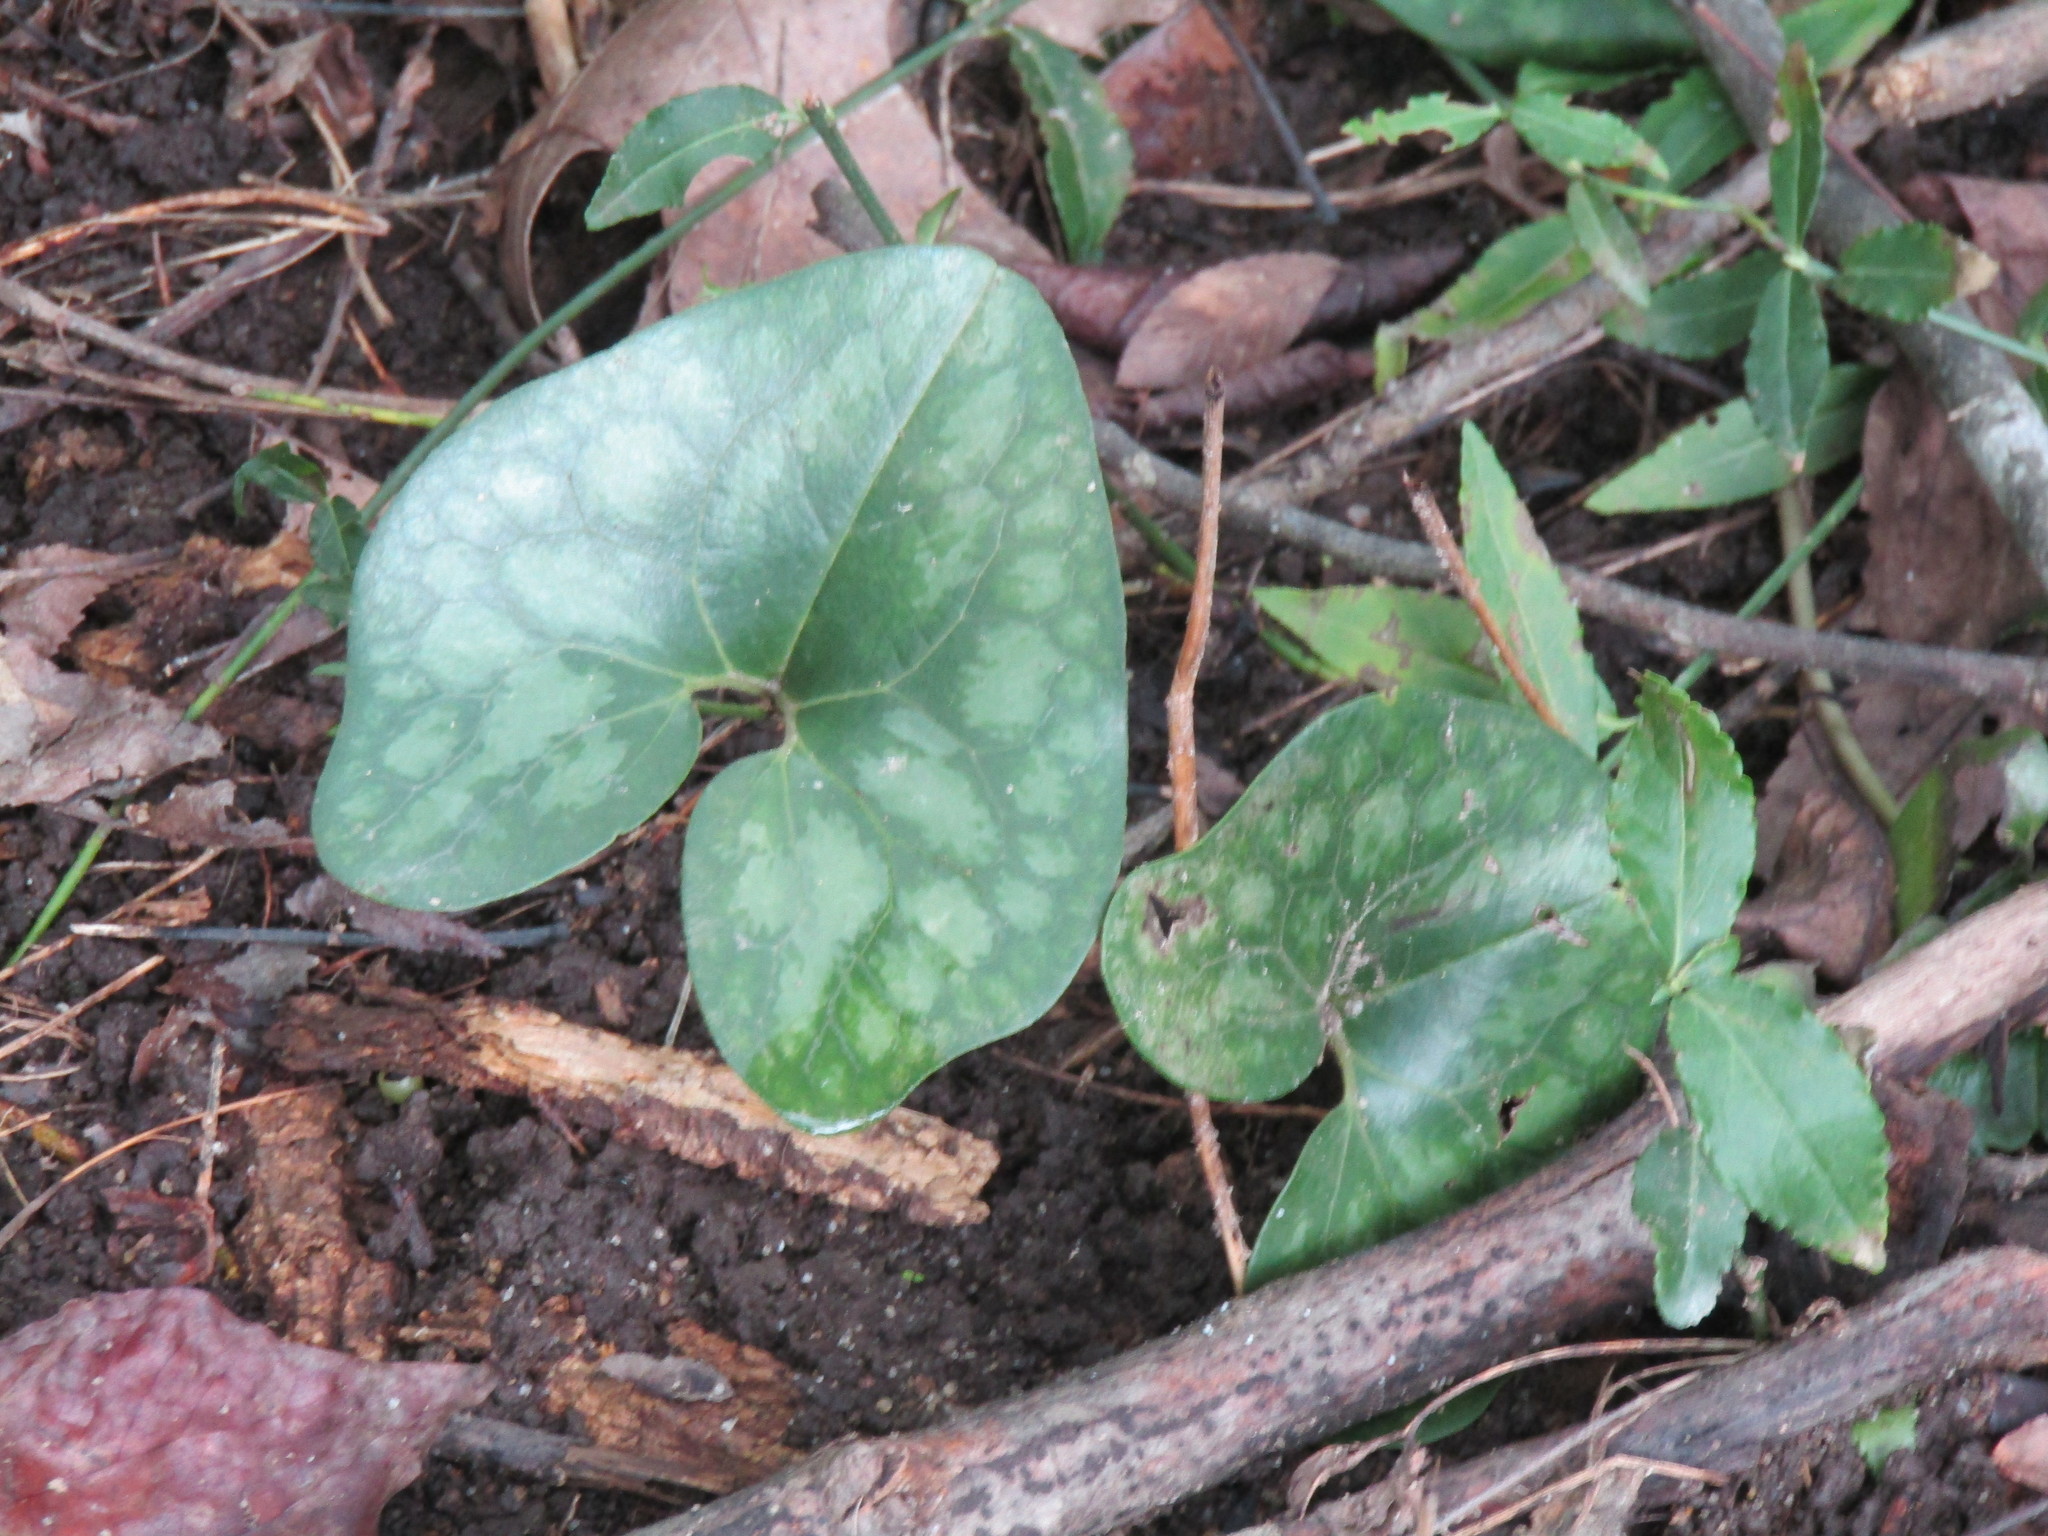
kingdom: Plantae
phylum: Tracheophyta
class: Magnoliopsida
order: Piperales
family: Aristolochiaceae
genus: Hexastylis
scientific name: Hexastylis arifolia
